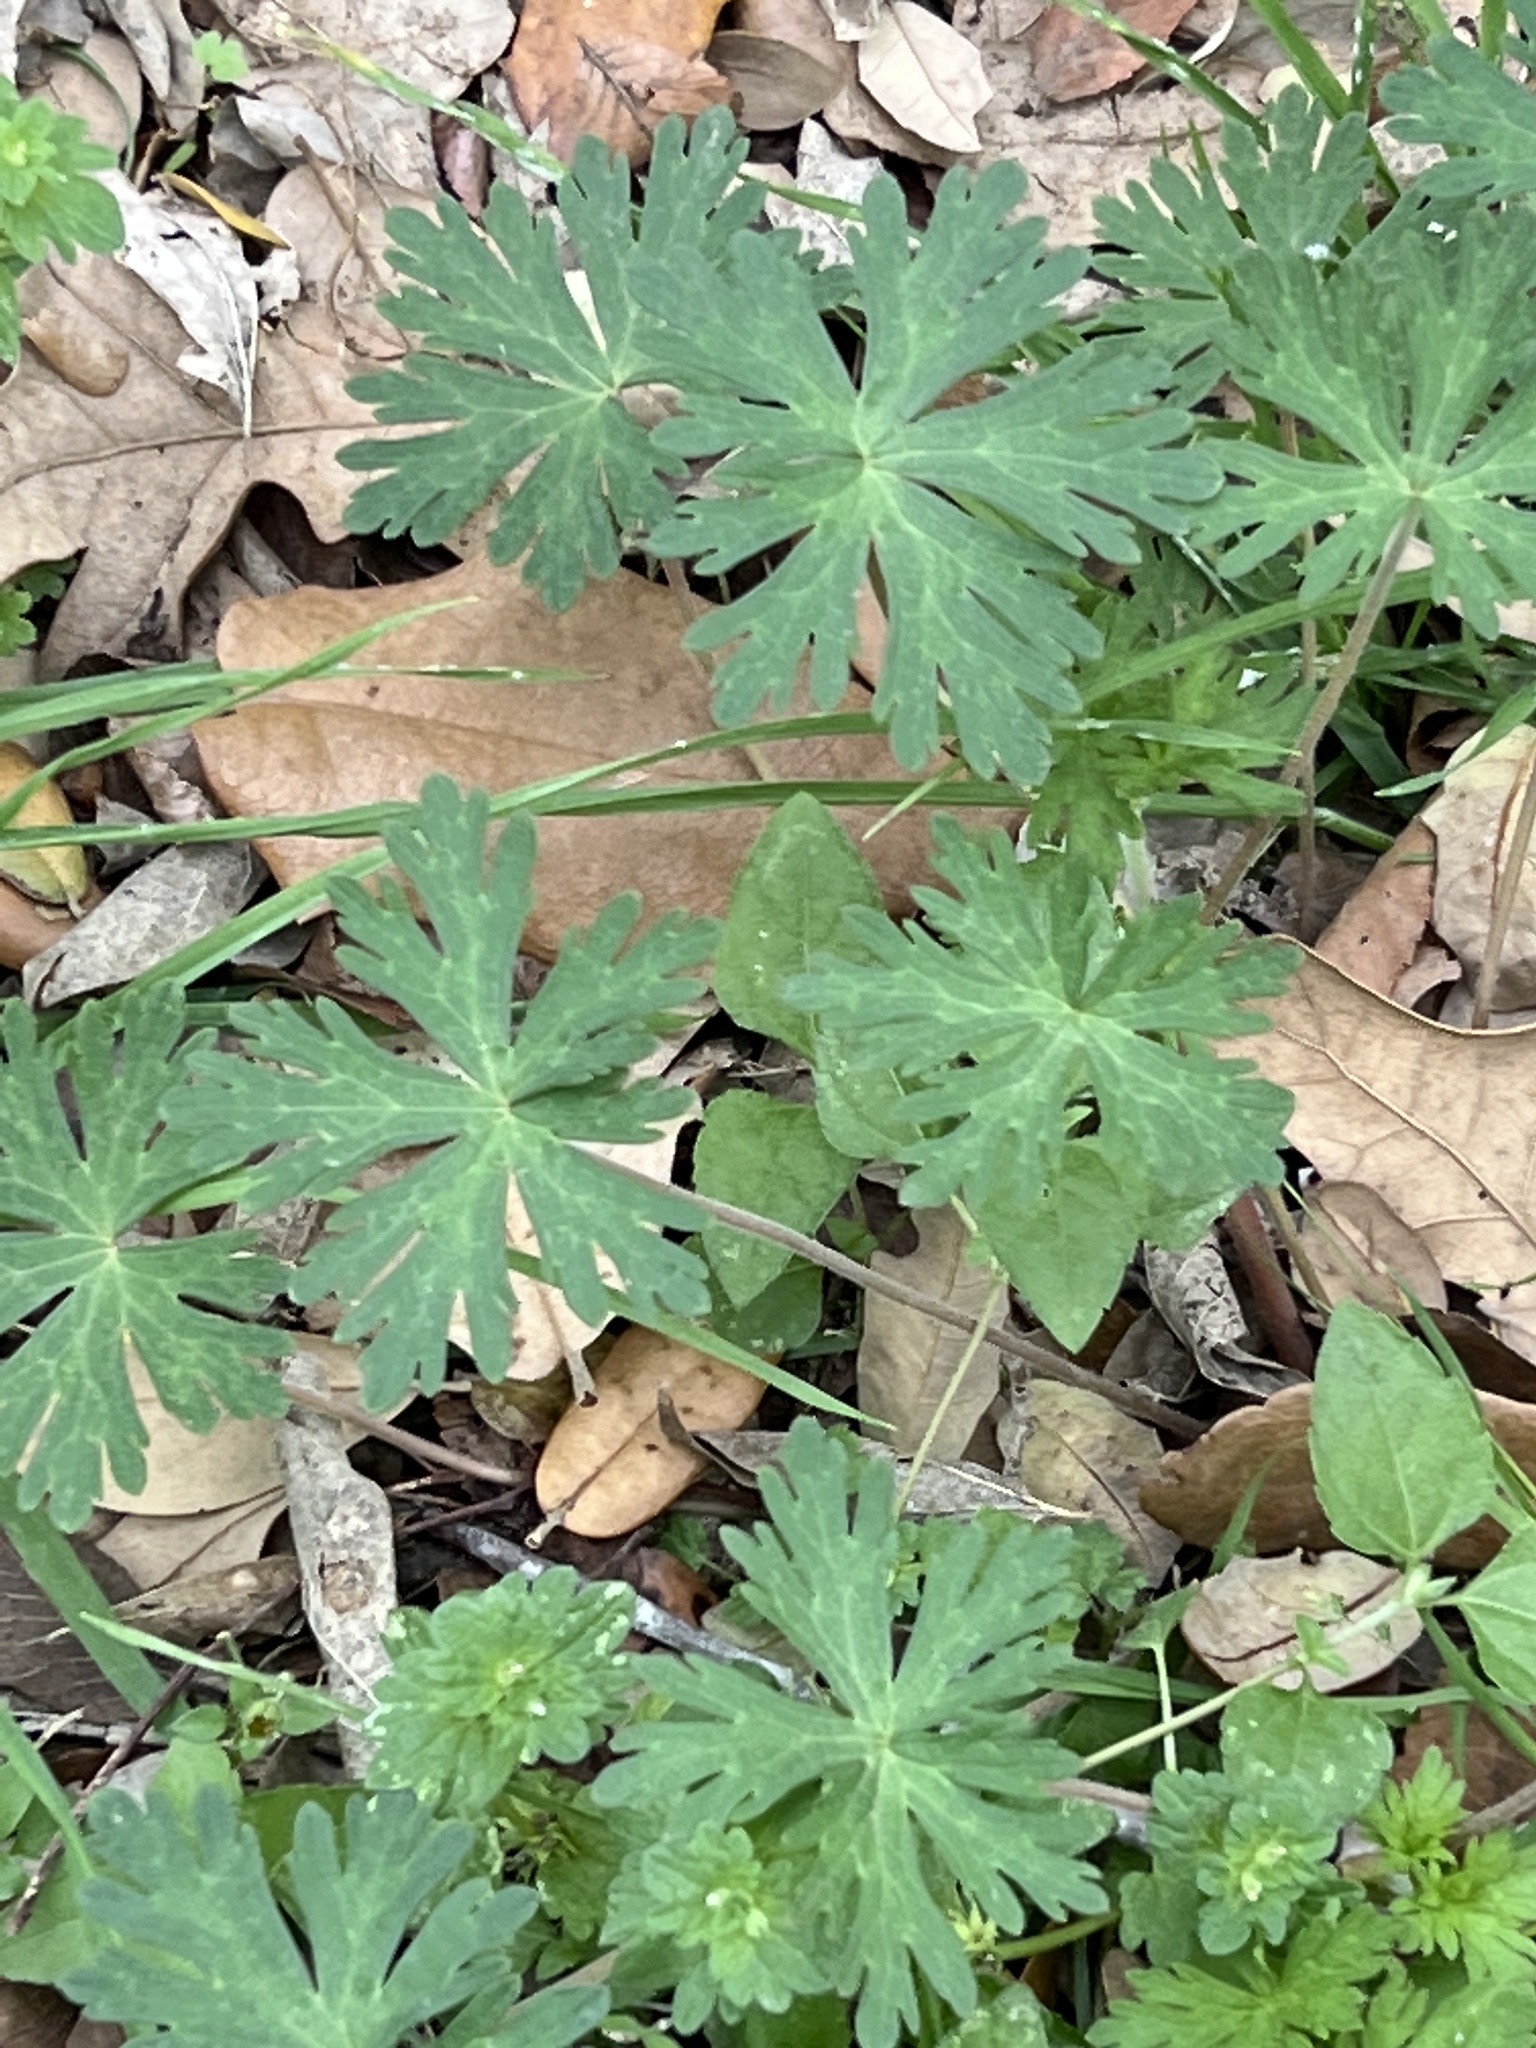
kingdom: Plantae
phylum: Tracheophyta
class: Magnoliopsida
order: Geraniales
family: Geraniaceae
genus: Geranium
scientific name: Geranium carolinianum
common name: Carolina crane's-bill
